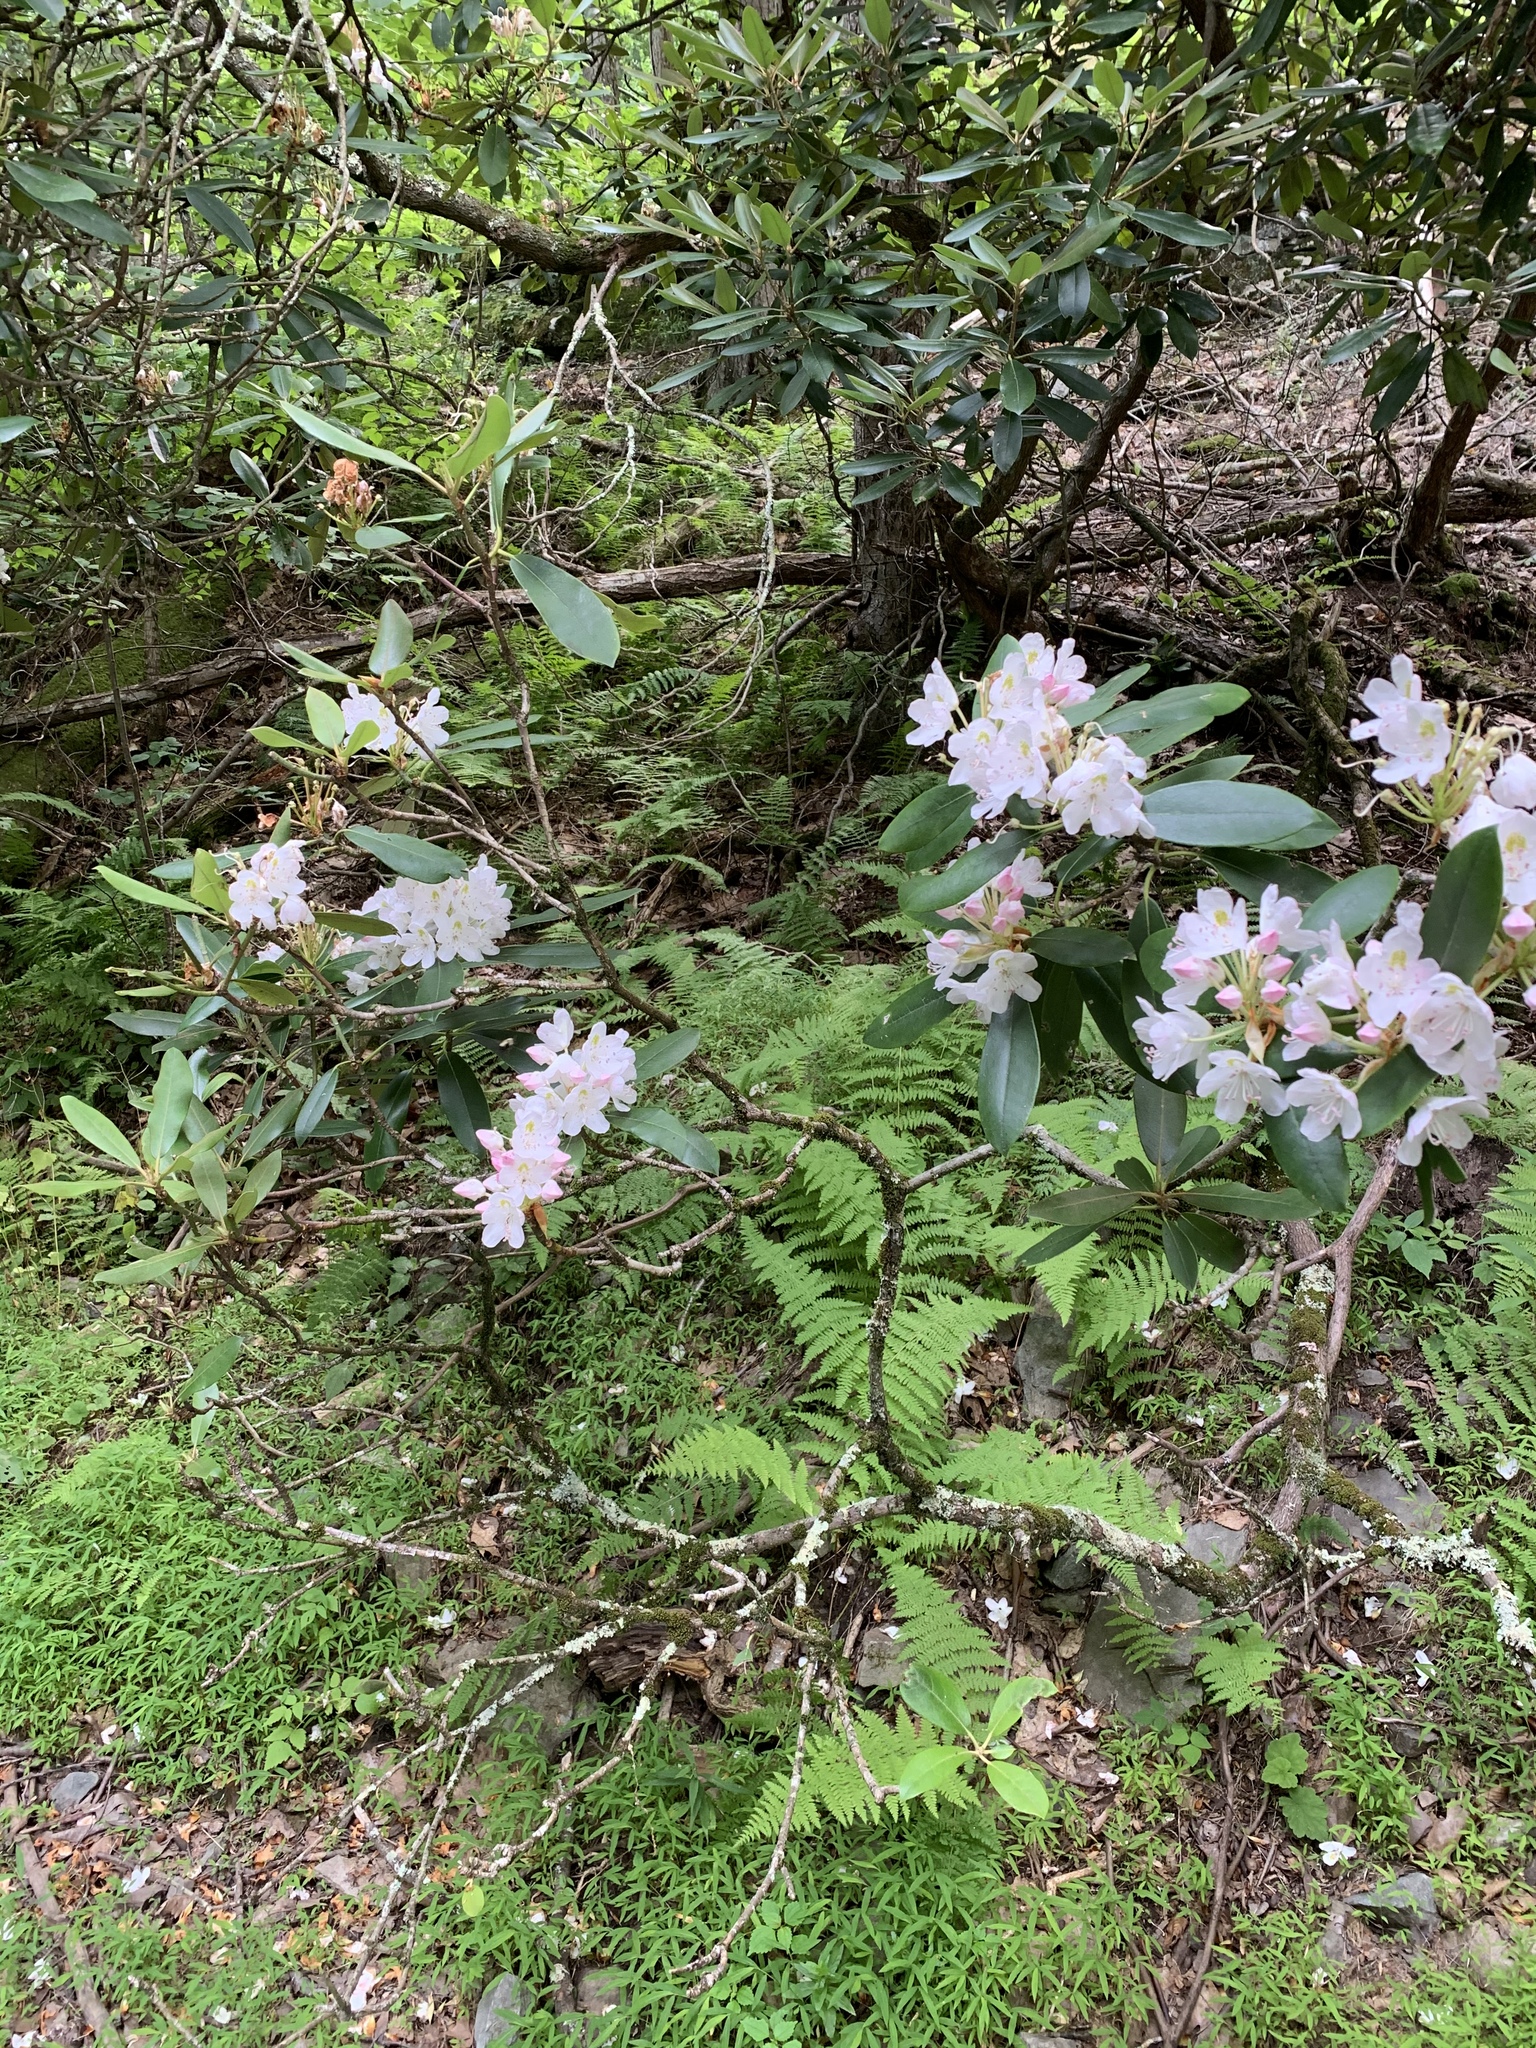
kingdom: Plantae
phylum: Tracheophyta
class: Magnoliopsida
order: Ericales
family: Ericaceae
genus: Rhododendron
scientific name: Rhododendron maximum
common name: Great rhododendron
